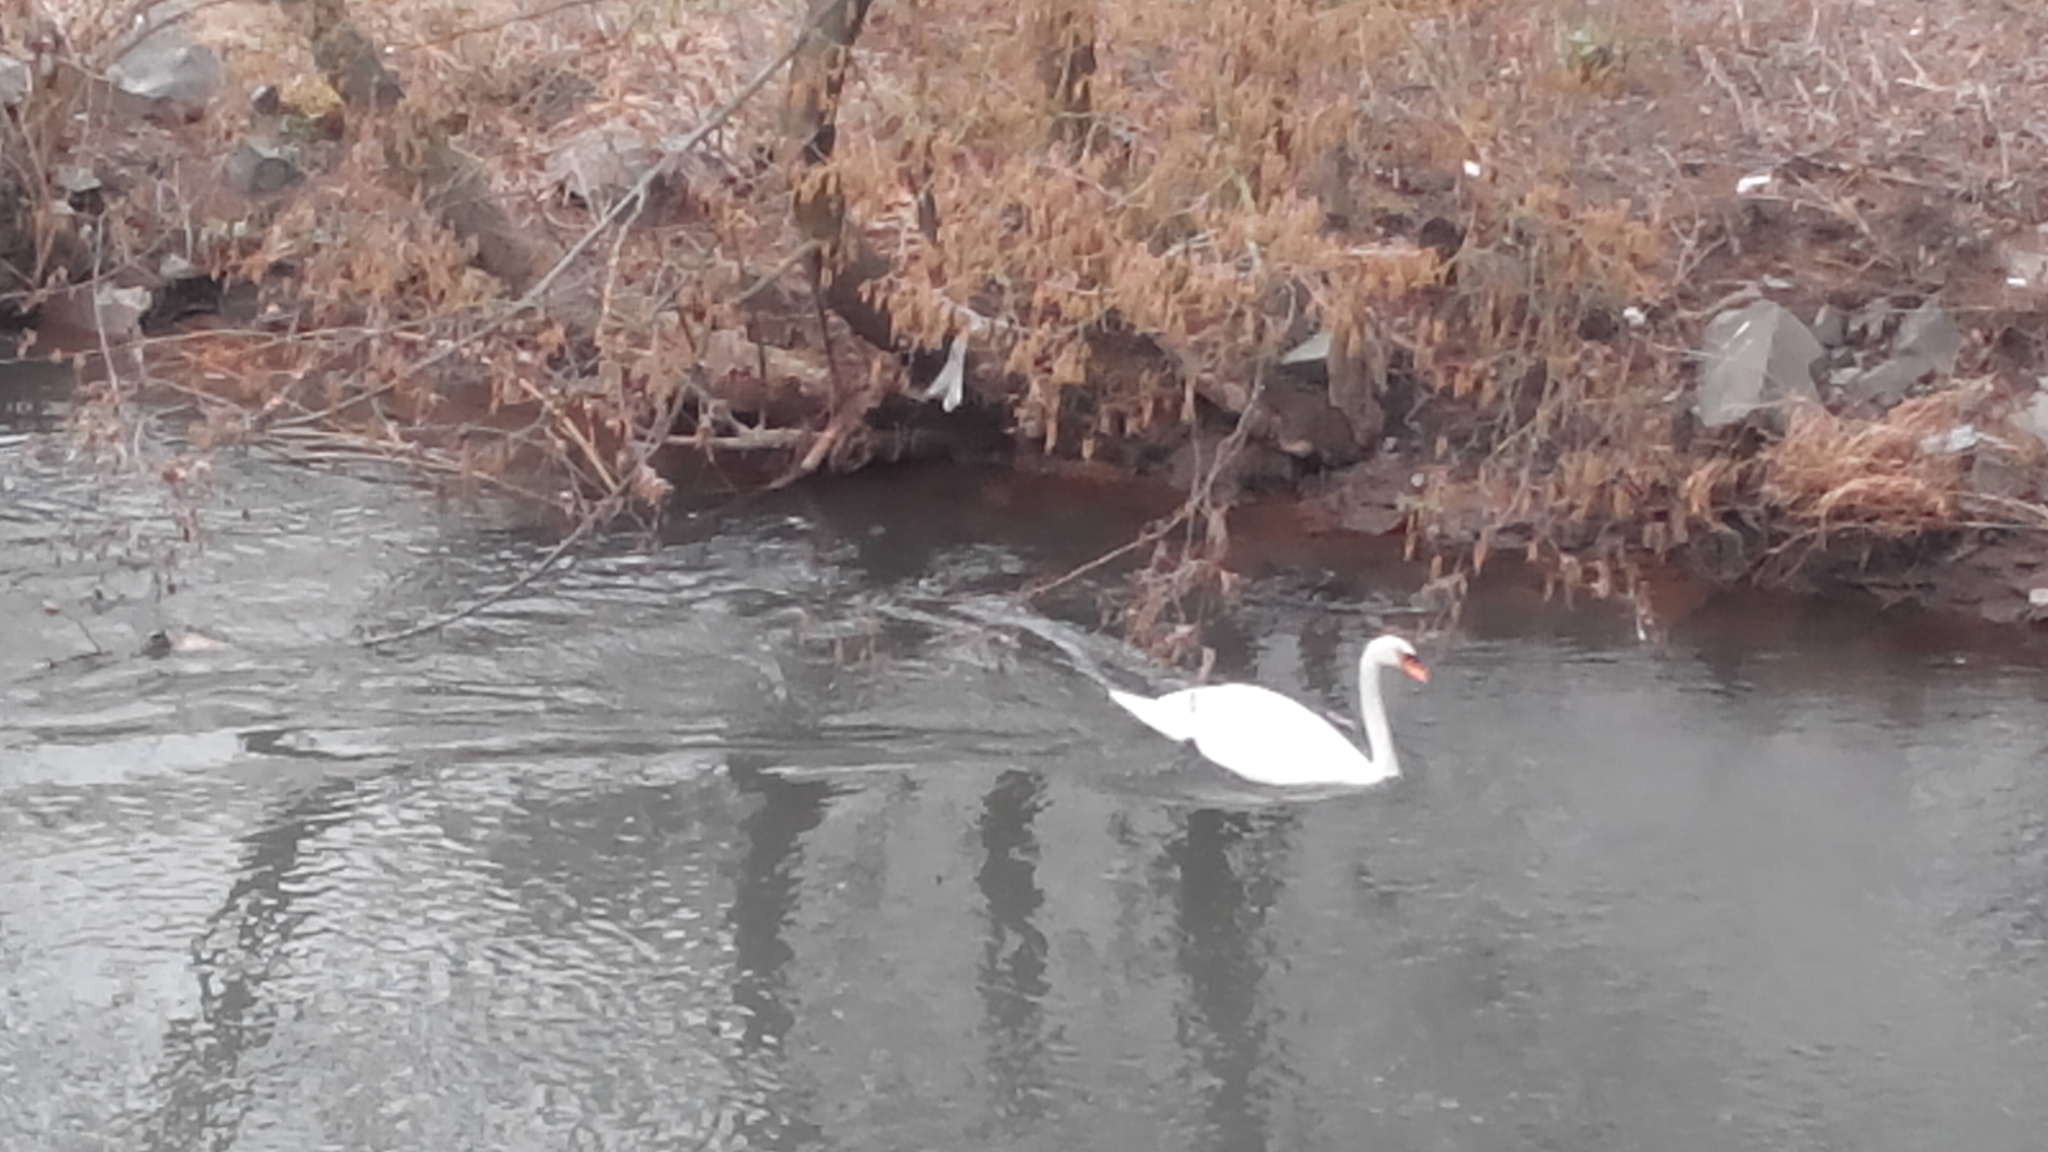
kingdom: Animalia
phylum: Chordata
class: Aves
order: Anseriformes
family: Anatidae
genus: Cygnus
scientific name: Cygnus olor
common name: Mute swan
